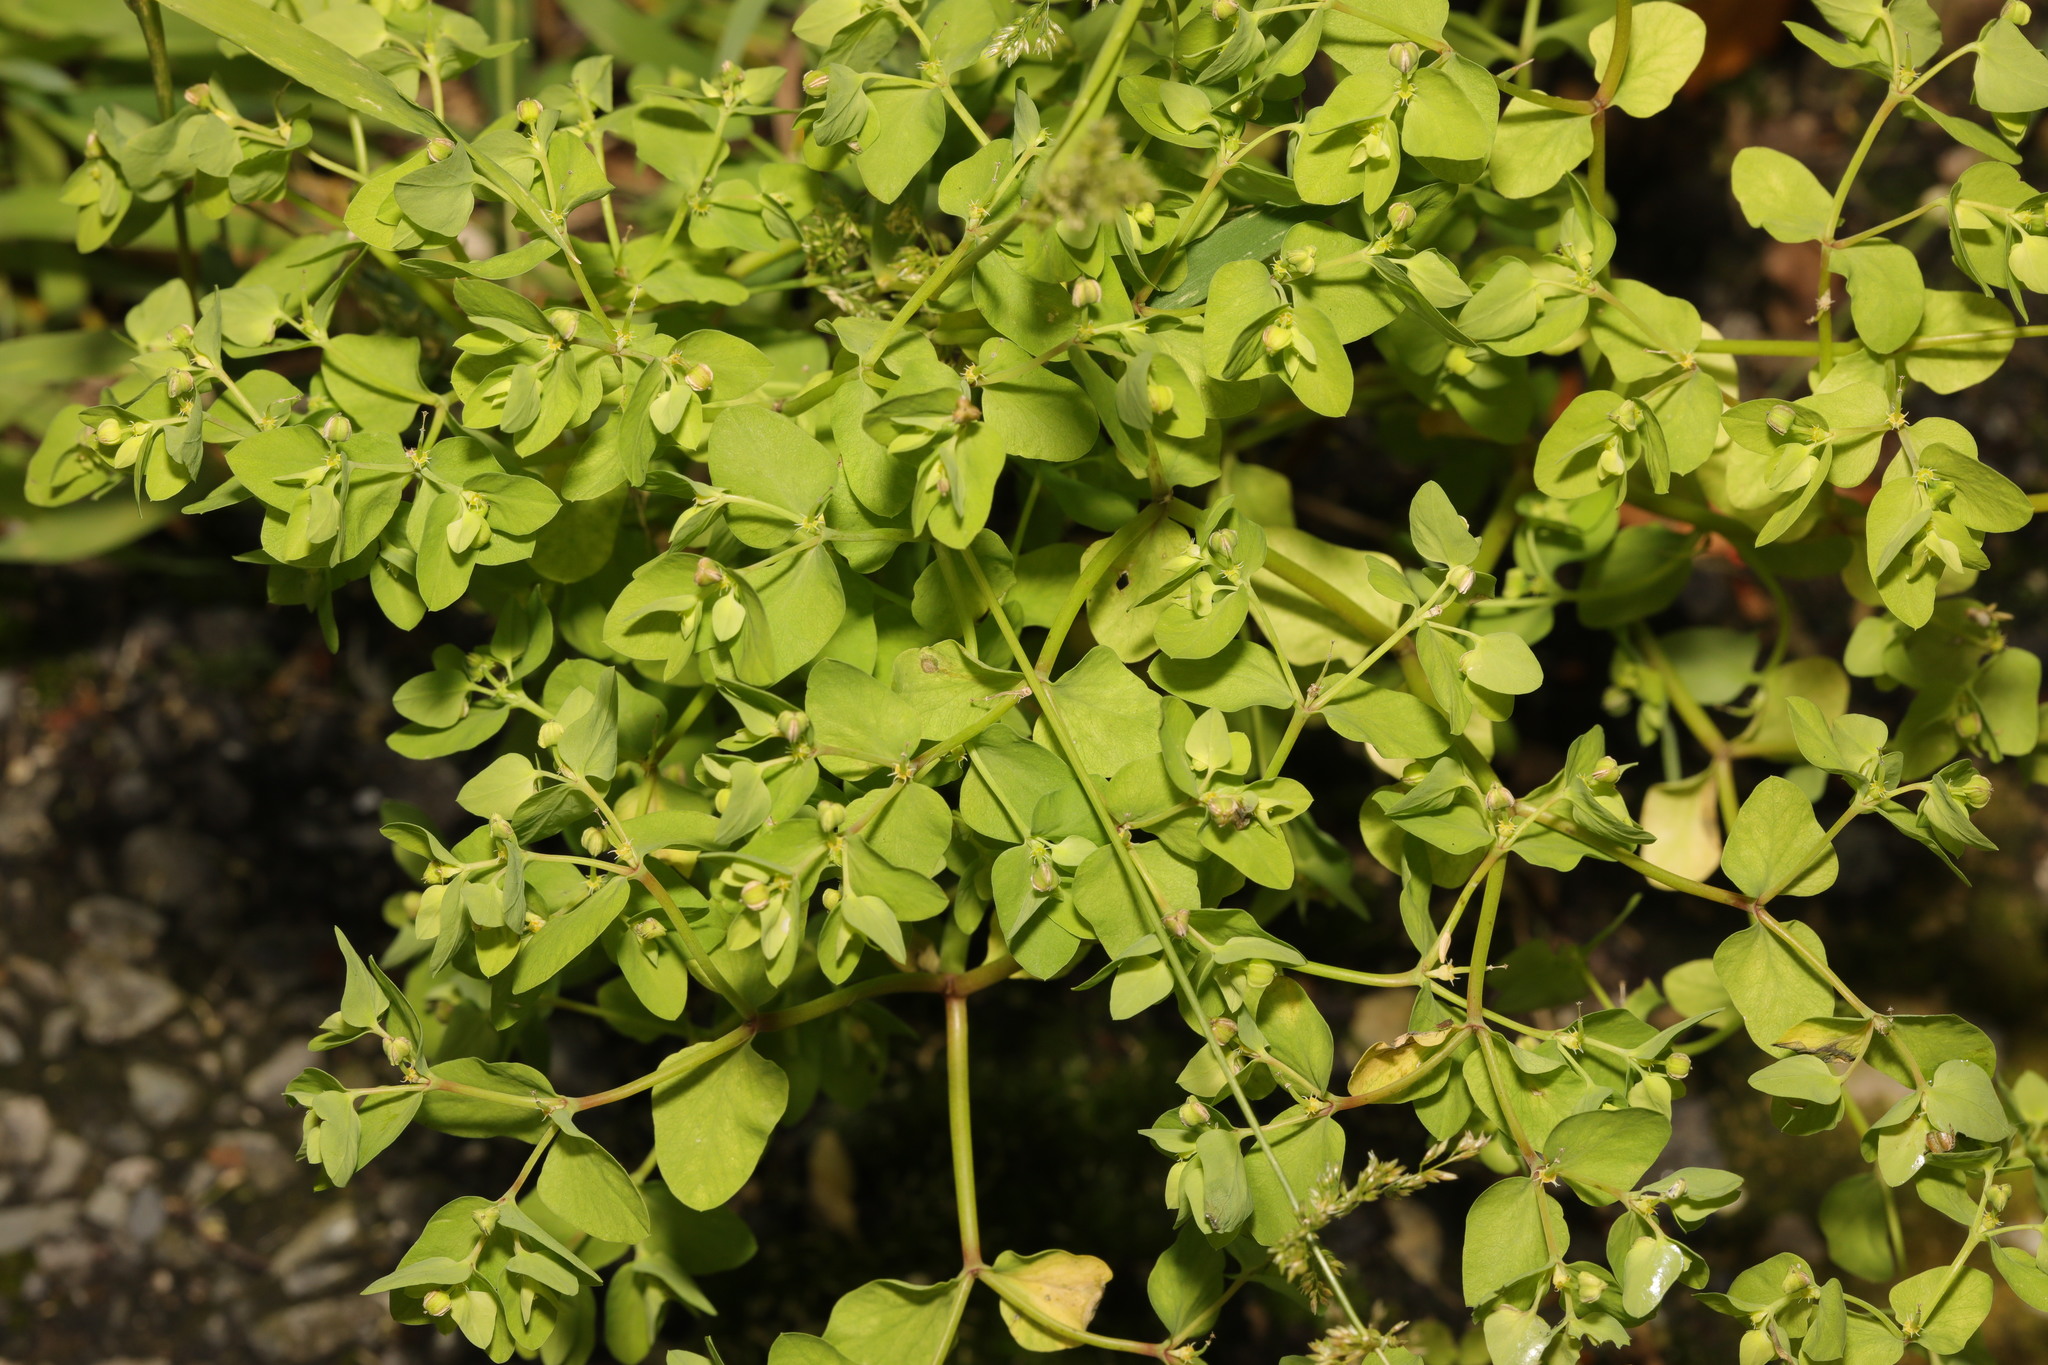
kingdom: Plantae
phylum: Tracheophyta
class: Magnoliopsida
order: Malpighiales
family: Euphorbiaceae
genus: Euphorbia
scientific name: Euphorbia peplus
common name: Petty spurge
